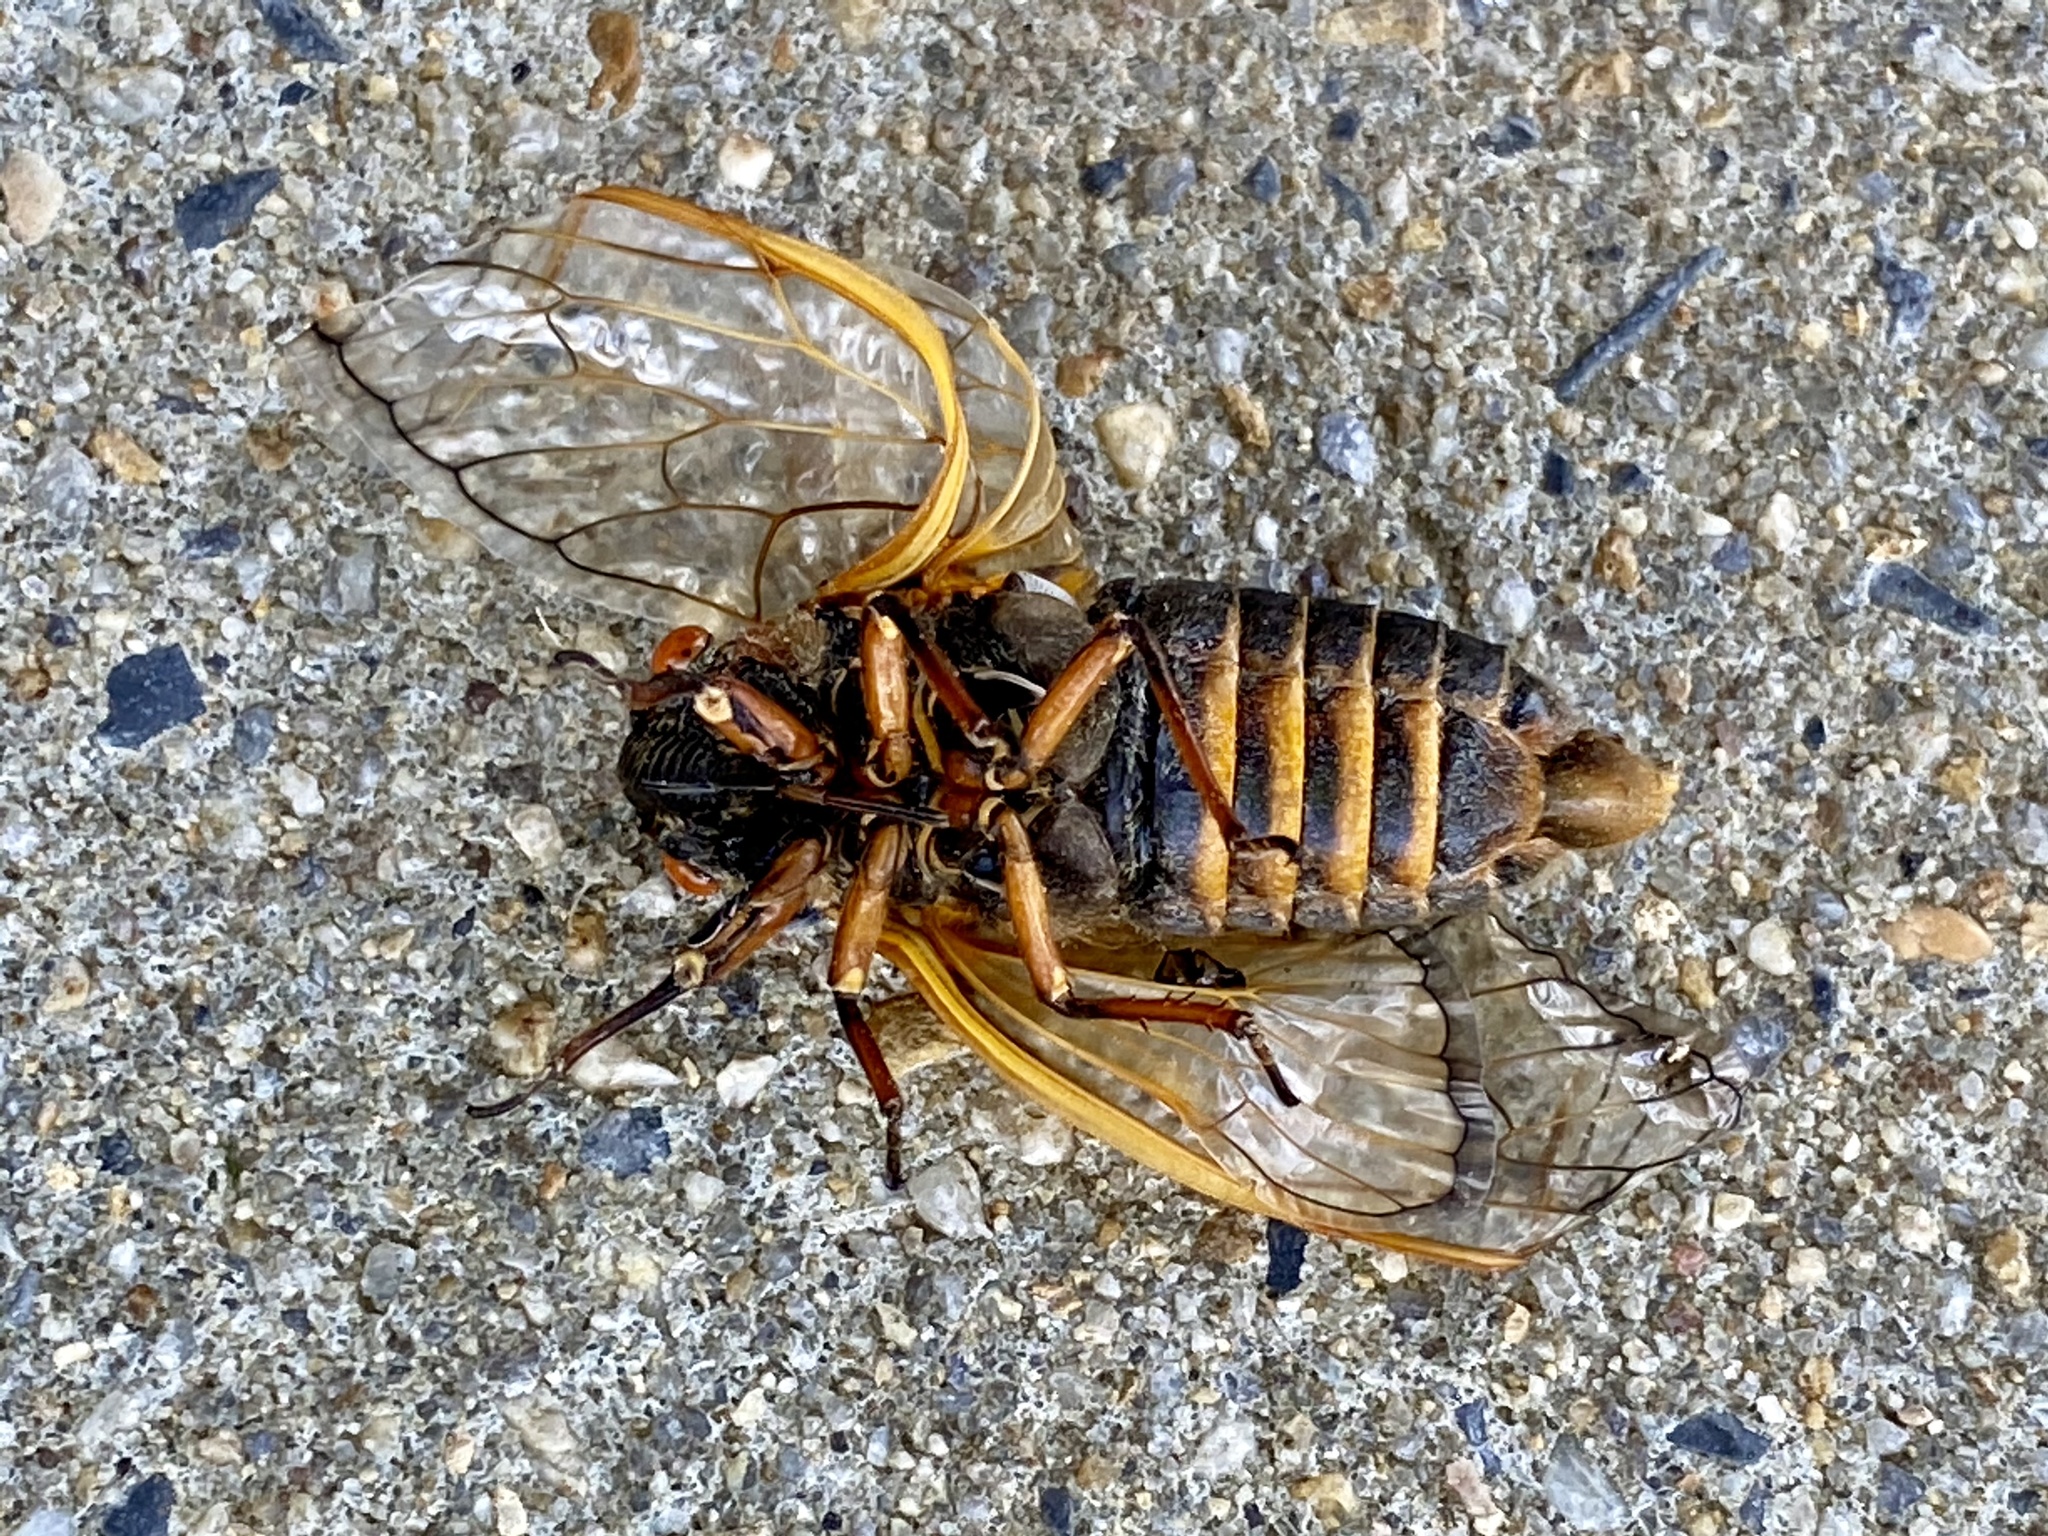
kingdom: Animalia
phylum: Arthropoda
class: Insecta
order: Hemiptera
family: Cicadidae
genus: Magicicada
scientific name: Magicicada septendecim
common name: Periodical cicada
